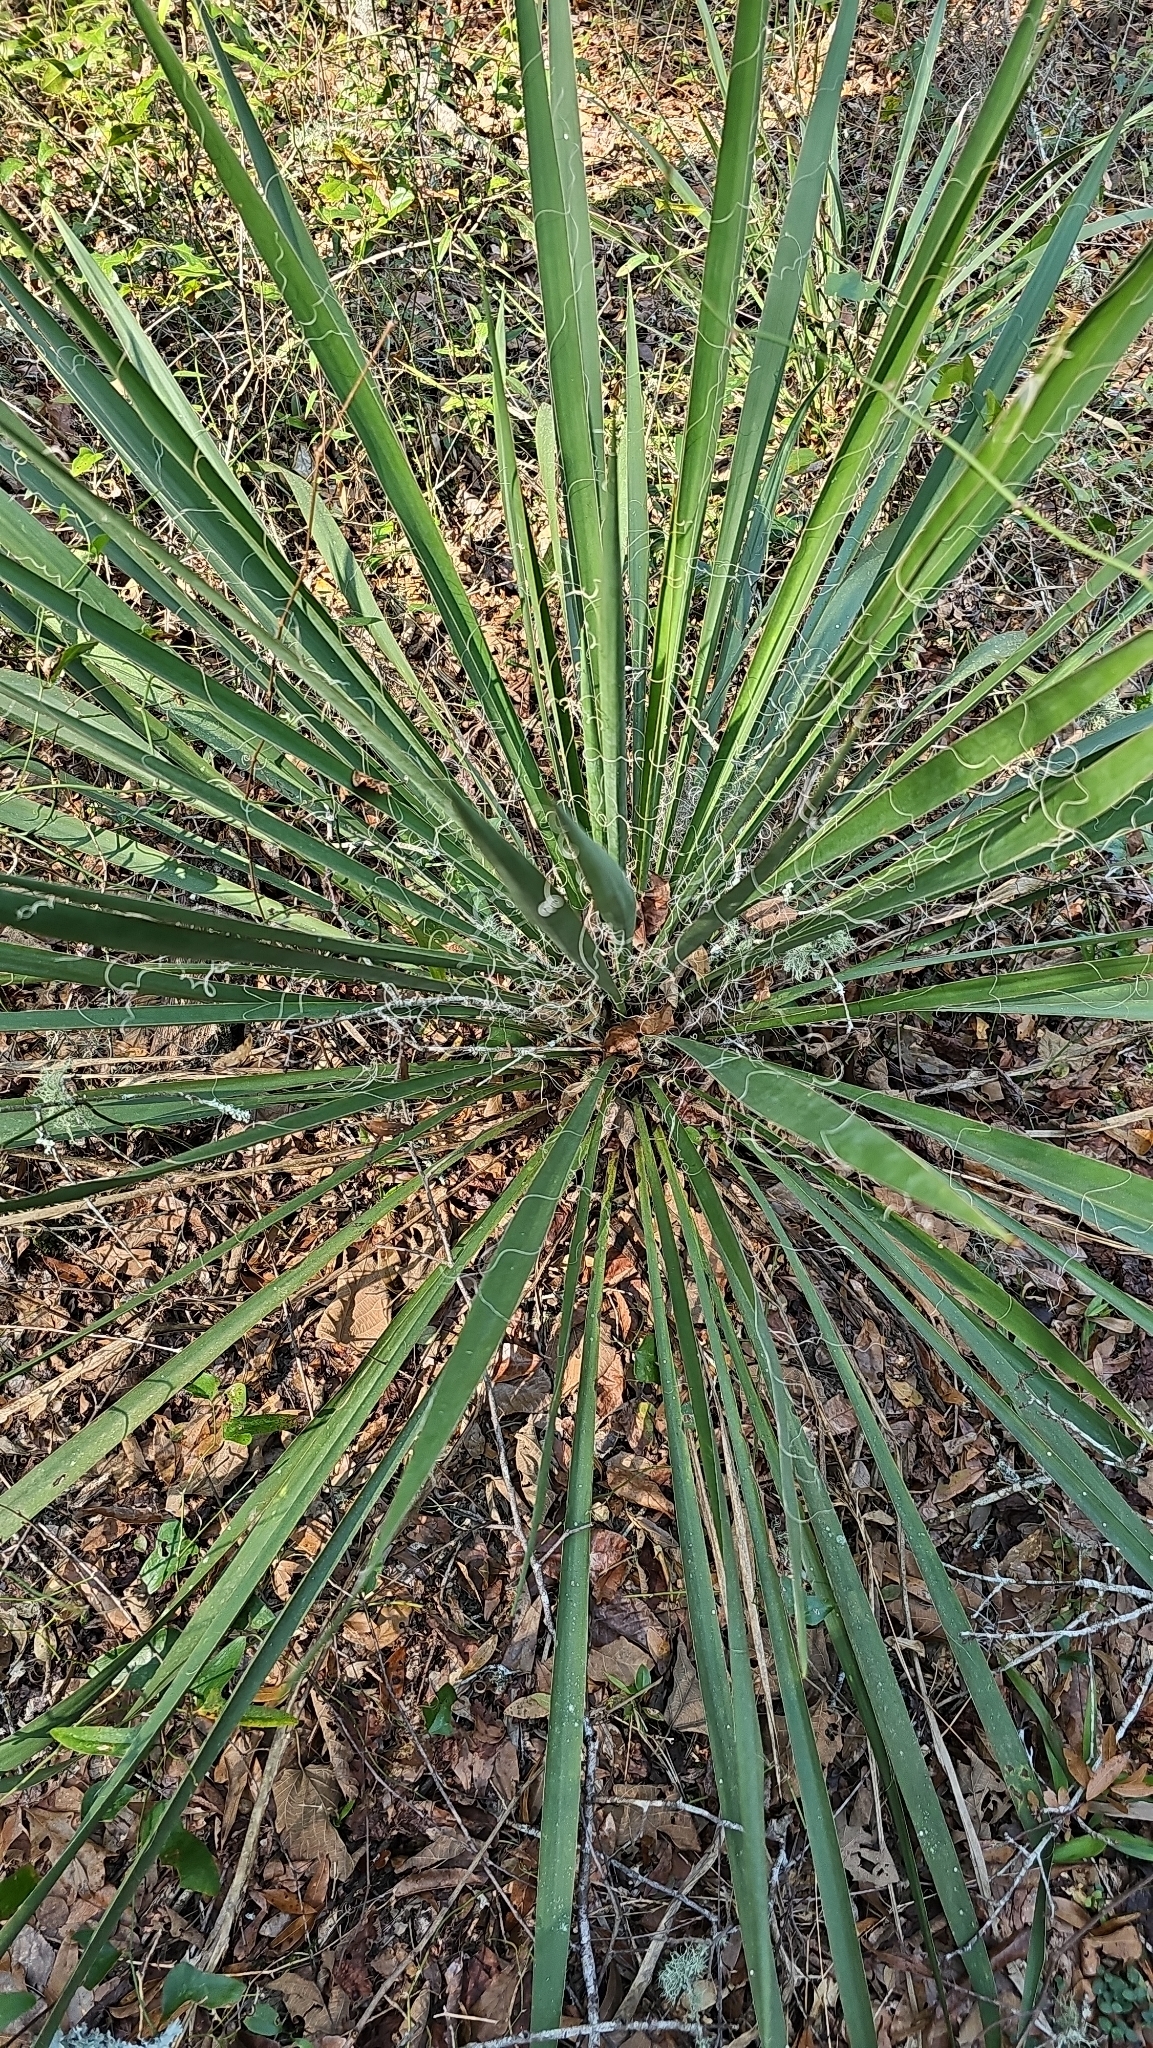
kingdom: Plantae
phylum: Tracheophyta
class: Liliopsida
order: Asparagales
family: Asparagaceae
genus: Yucca
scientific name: Yucca filamentosa
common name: Adam's-needle
